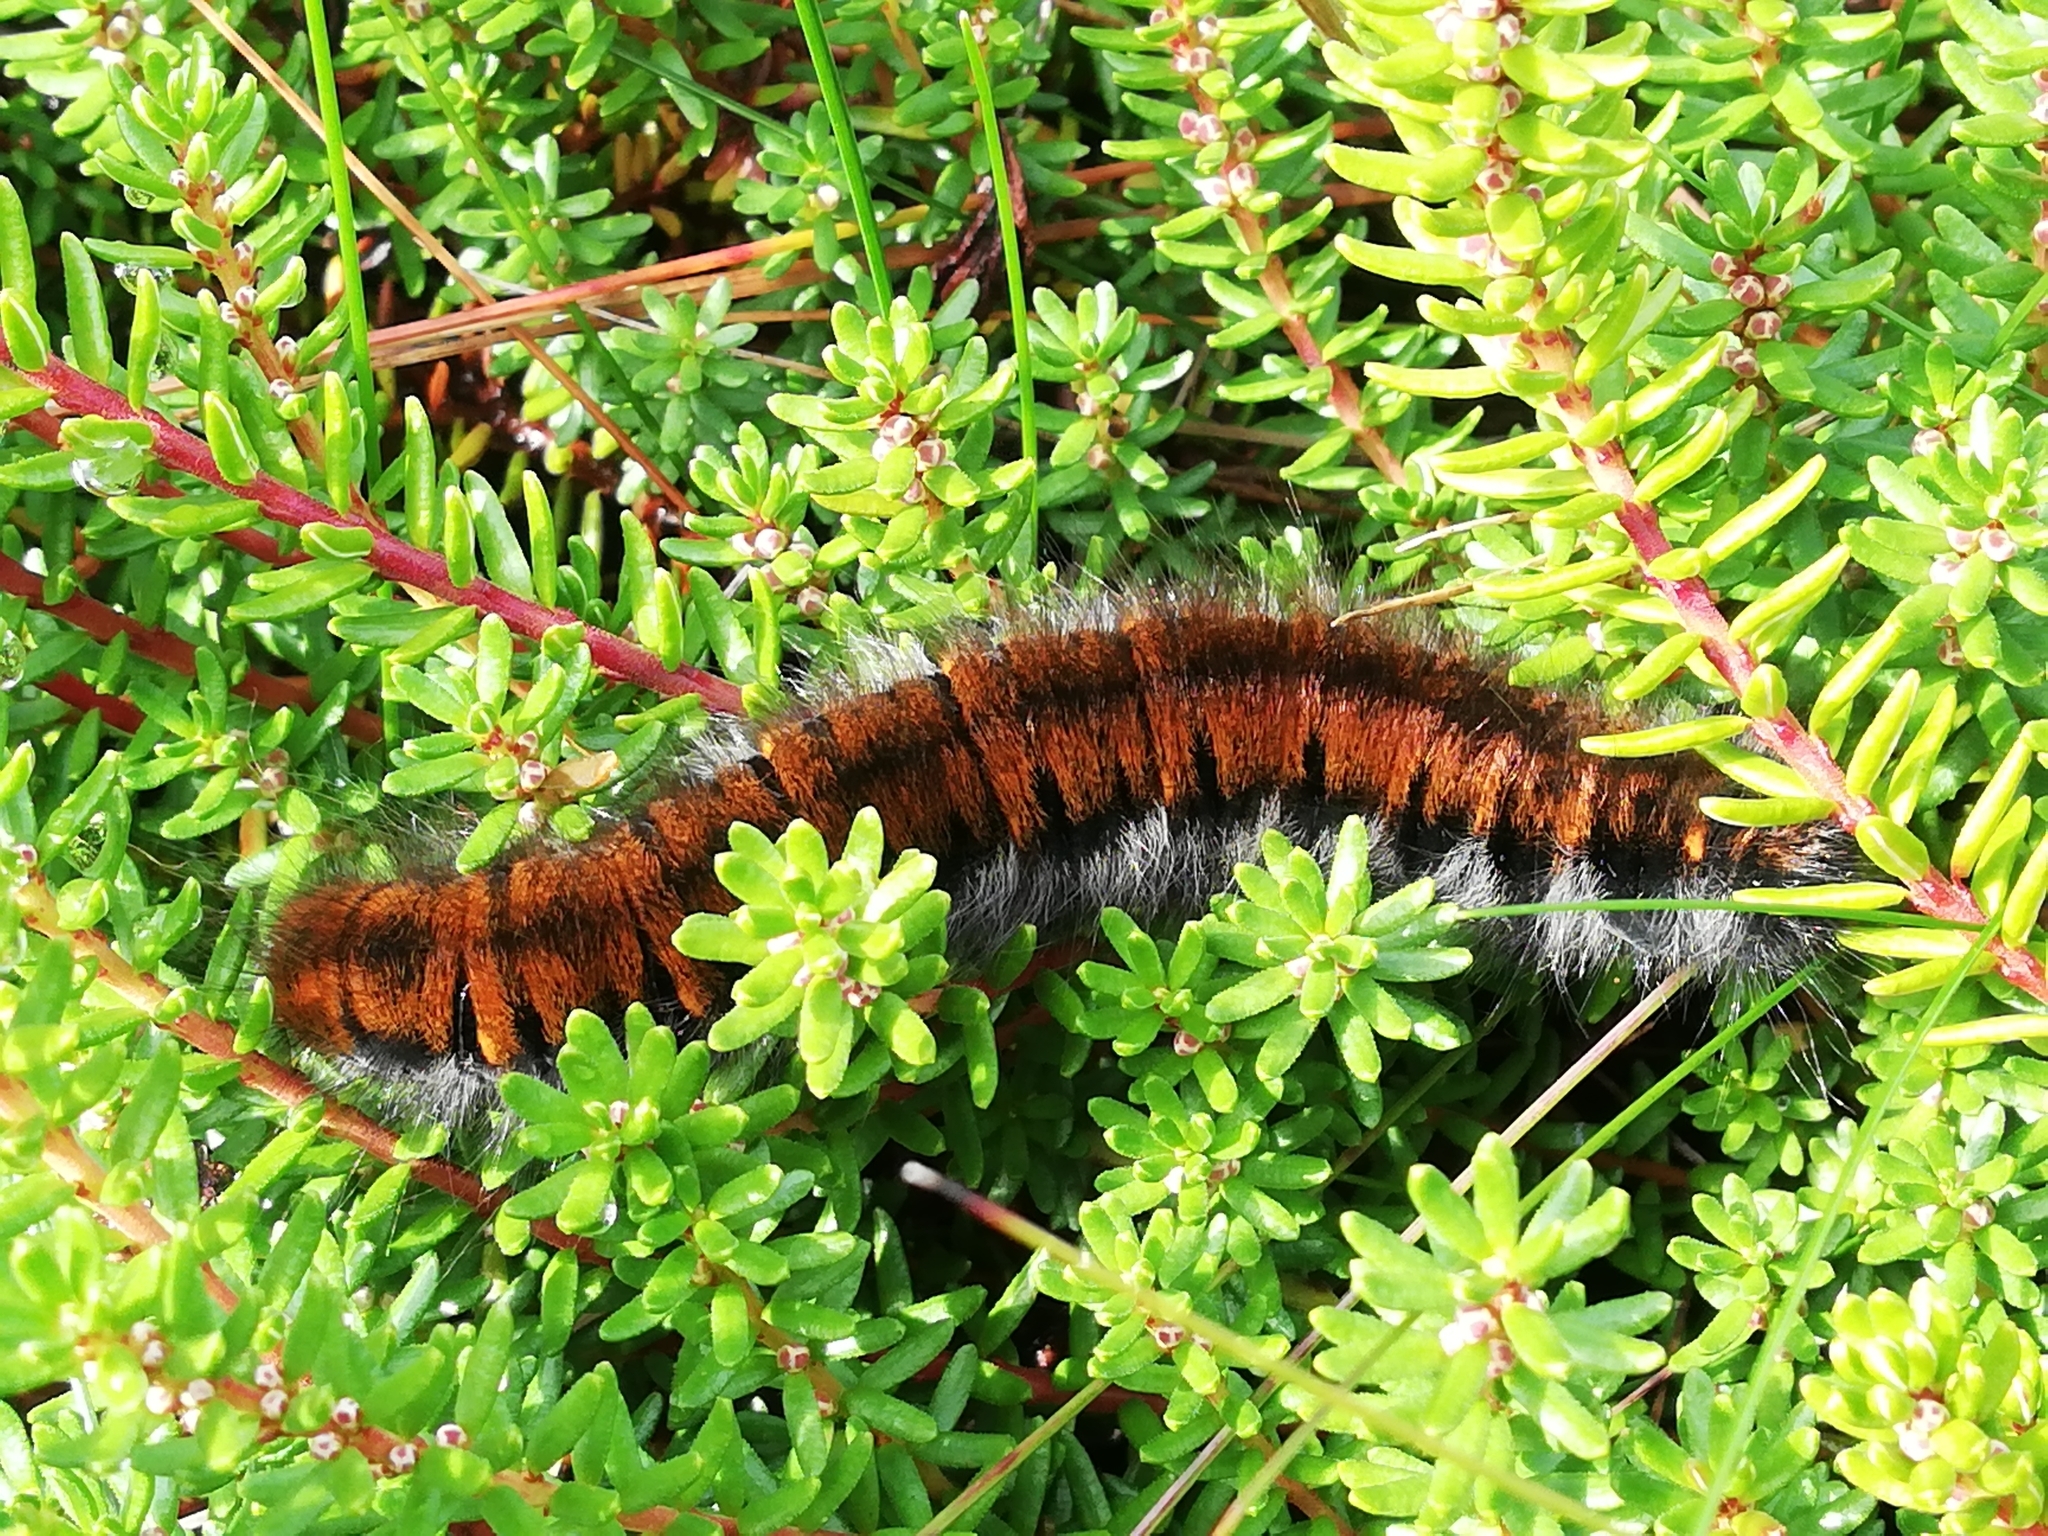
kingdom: Animalia
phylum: Arthropoda
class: Insecta
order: Lepidoptera
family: Lasiocampidae
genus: Macrothylacia
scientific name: Macrothylacia rubi
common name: Fox moth
